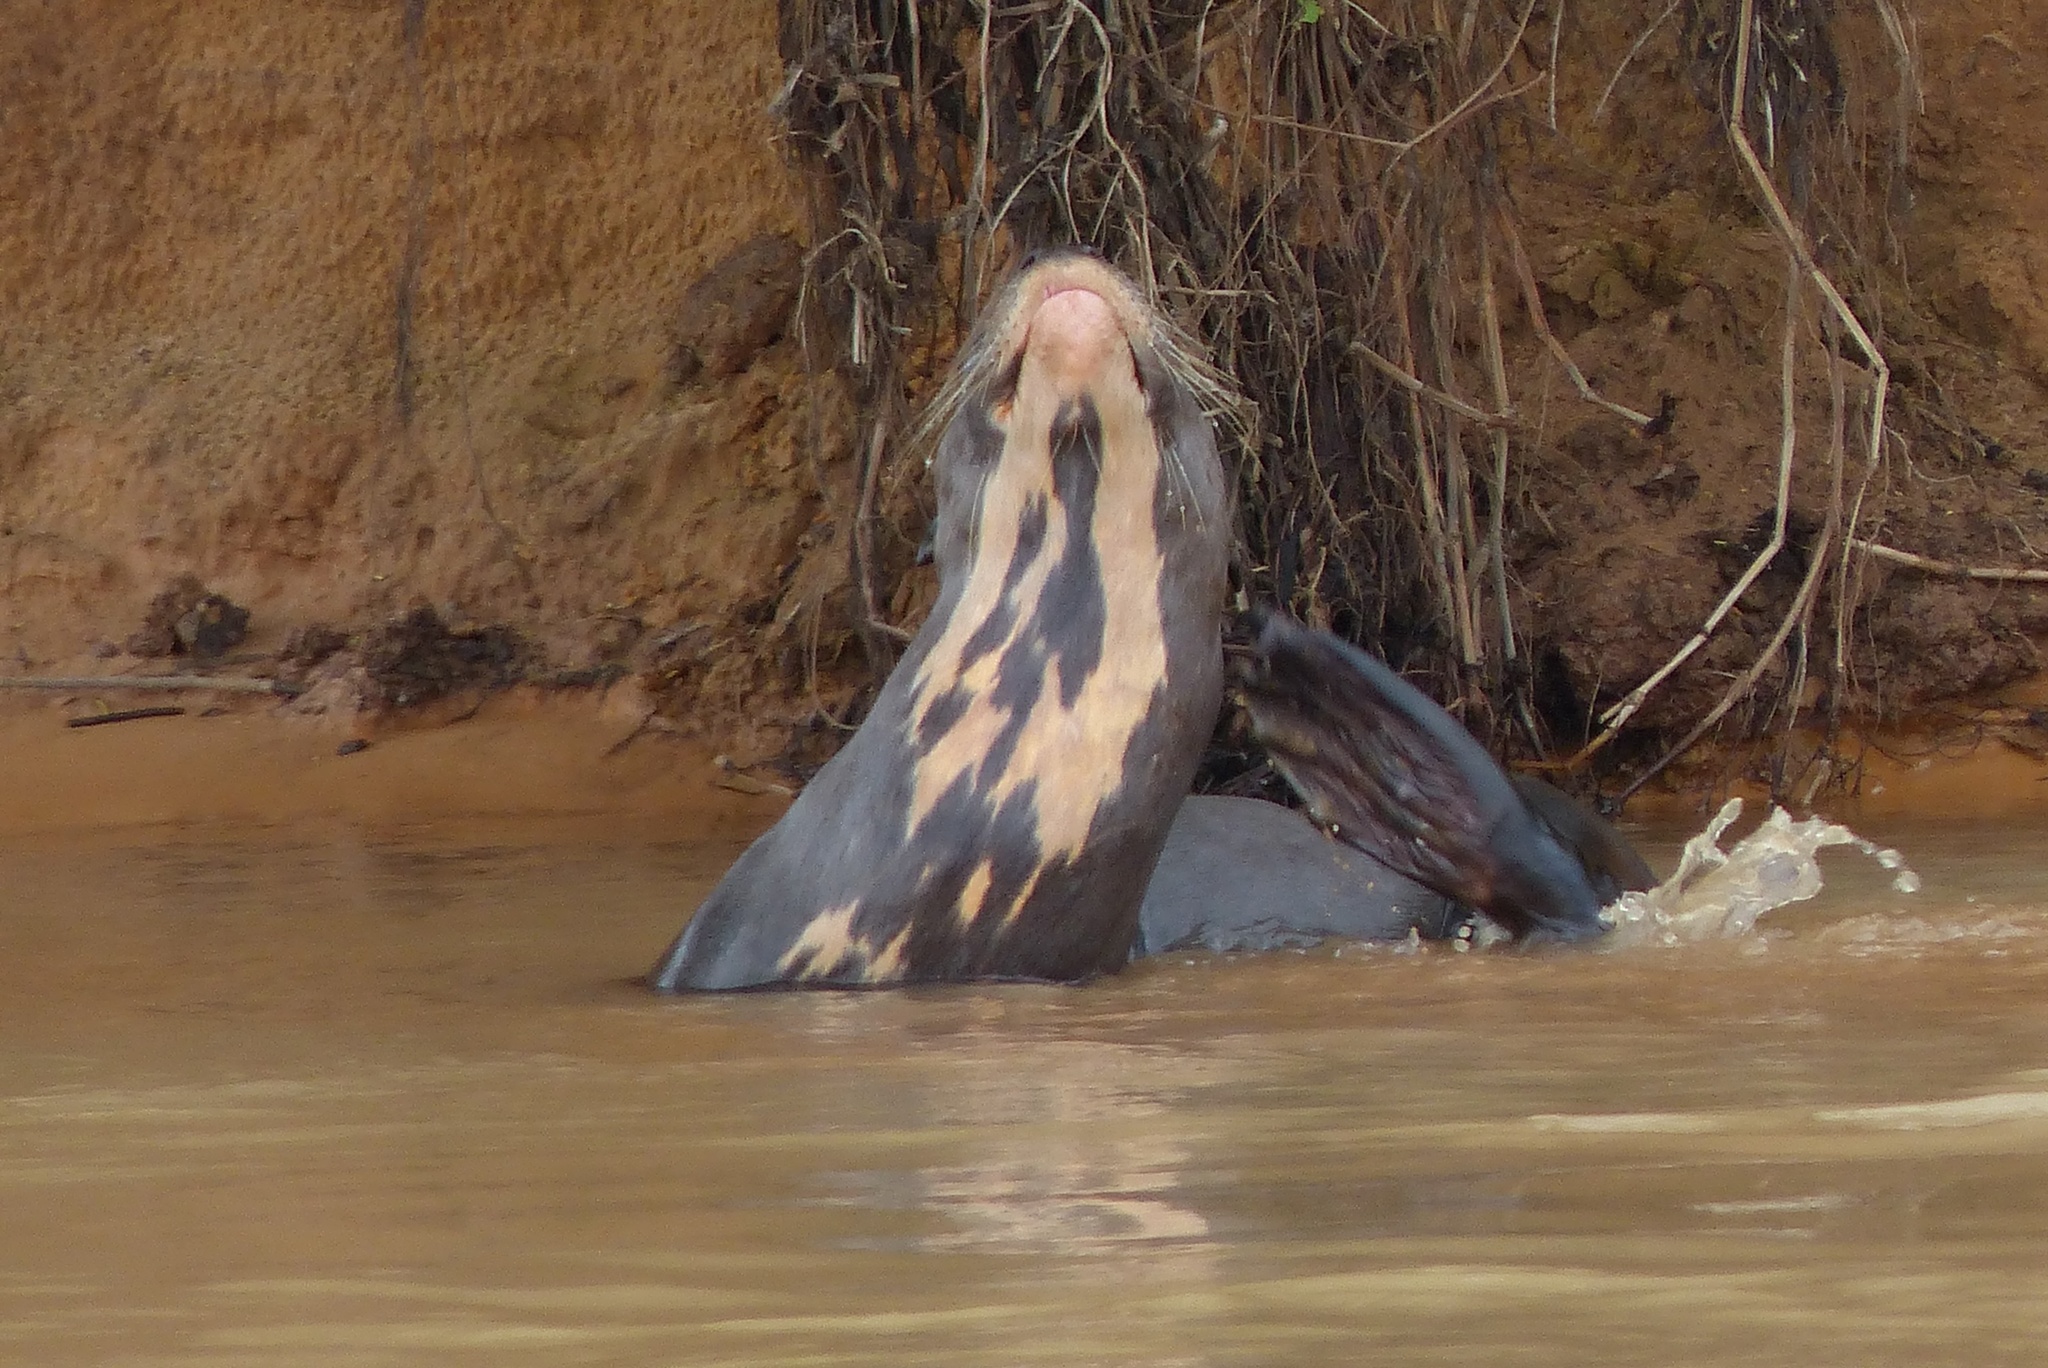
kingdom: Animalia
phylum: Chordata
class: Mammalia
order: Carnivora
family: Mustelidae
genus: Pteronura
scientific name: Pteronura brasiliensis
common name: Giant otter
